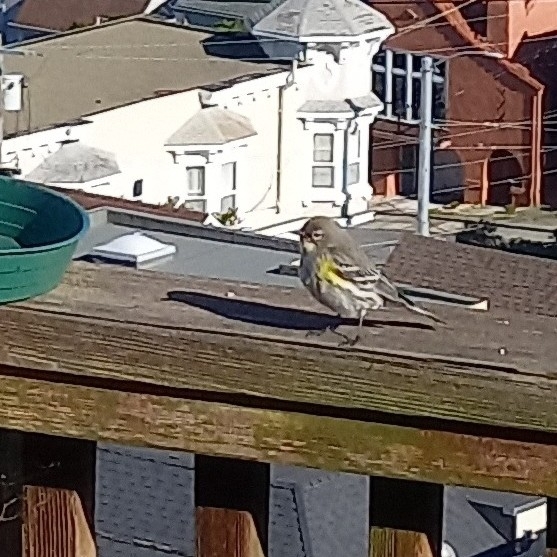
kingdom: Animalia
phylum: Chordata
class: Aves
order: Passeriformes
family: Parulidae
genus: Setophaga
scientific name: Setophaga coronata
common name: Myrtle warbler
